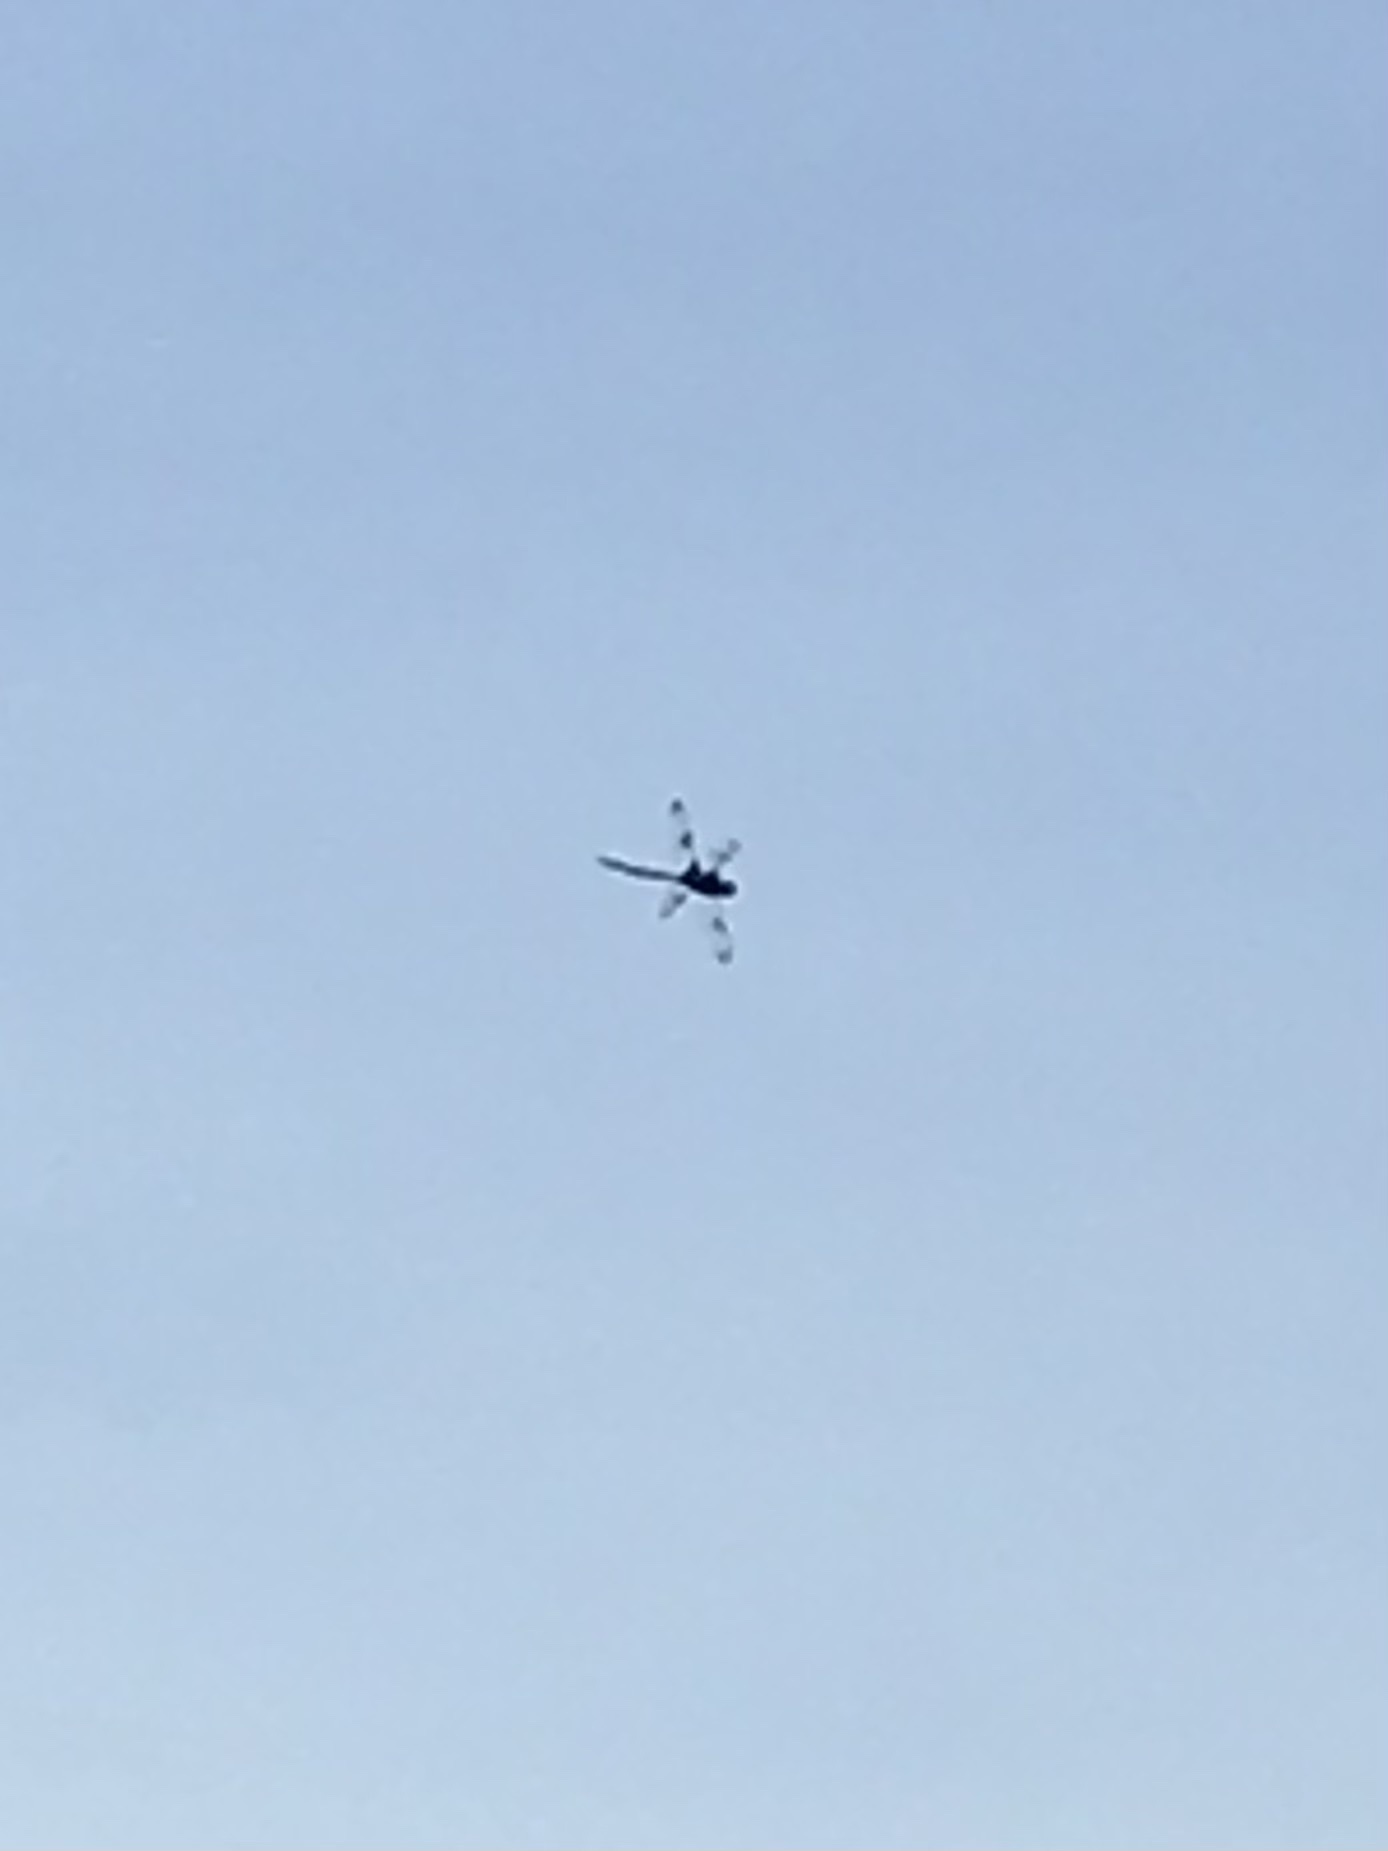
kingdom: Animalia
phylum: Arthropoda
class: Insecta
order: Odonata
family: Corduliidae
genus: Epitheca
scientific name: Epitheca princeps
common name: Prince baskettail
